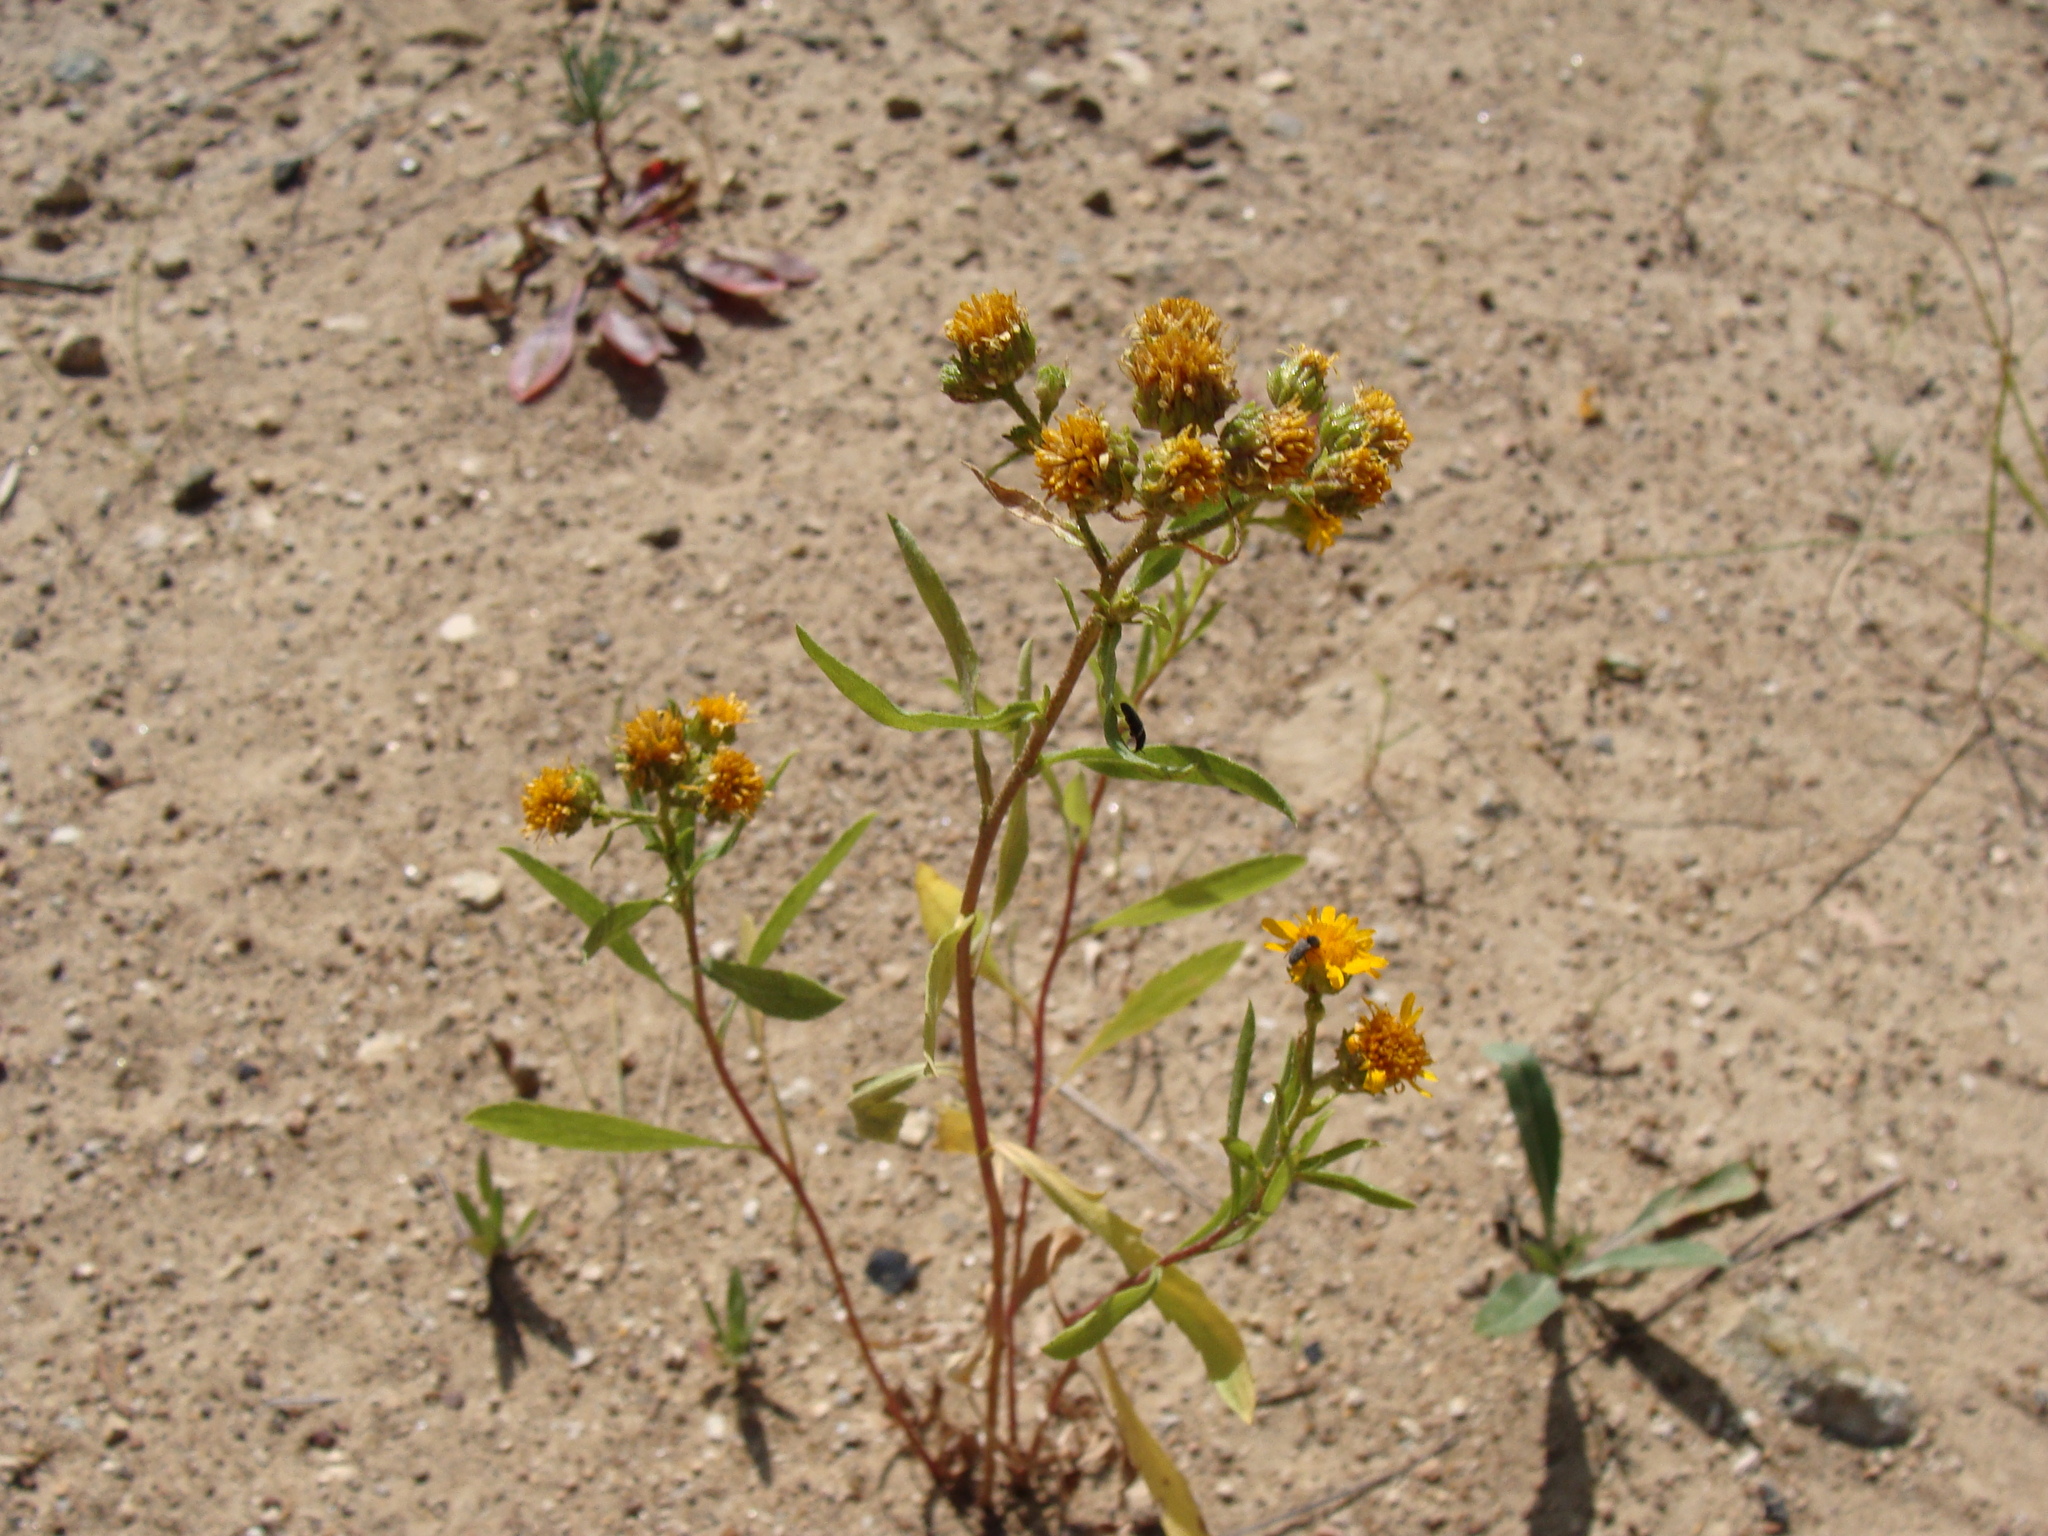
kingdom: Plantae
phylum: Tracheophyta
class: Magnoliopsida
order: Asterales
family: Asteraceae
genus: Xanthocephalum
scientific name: Xanthocephalum gymnospermoides
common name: San pedro matchweed
